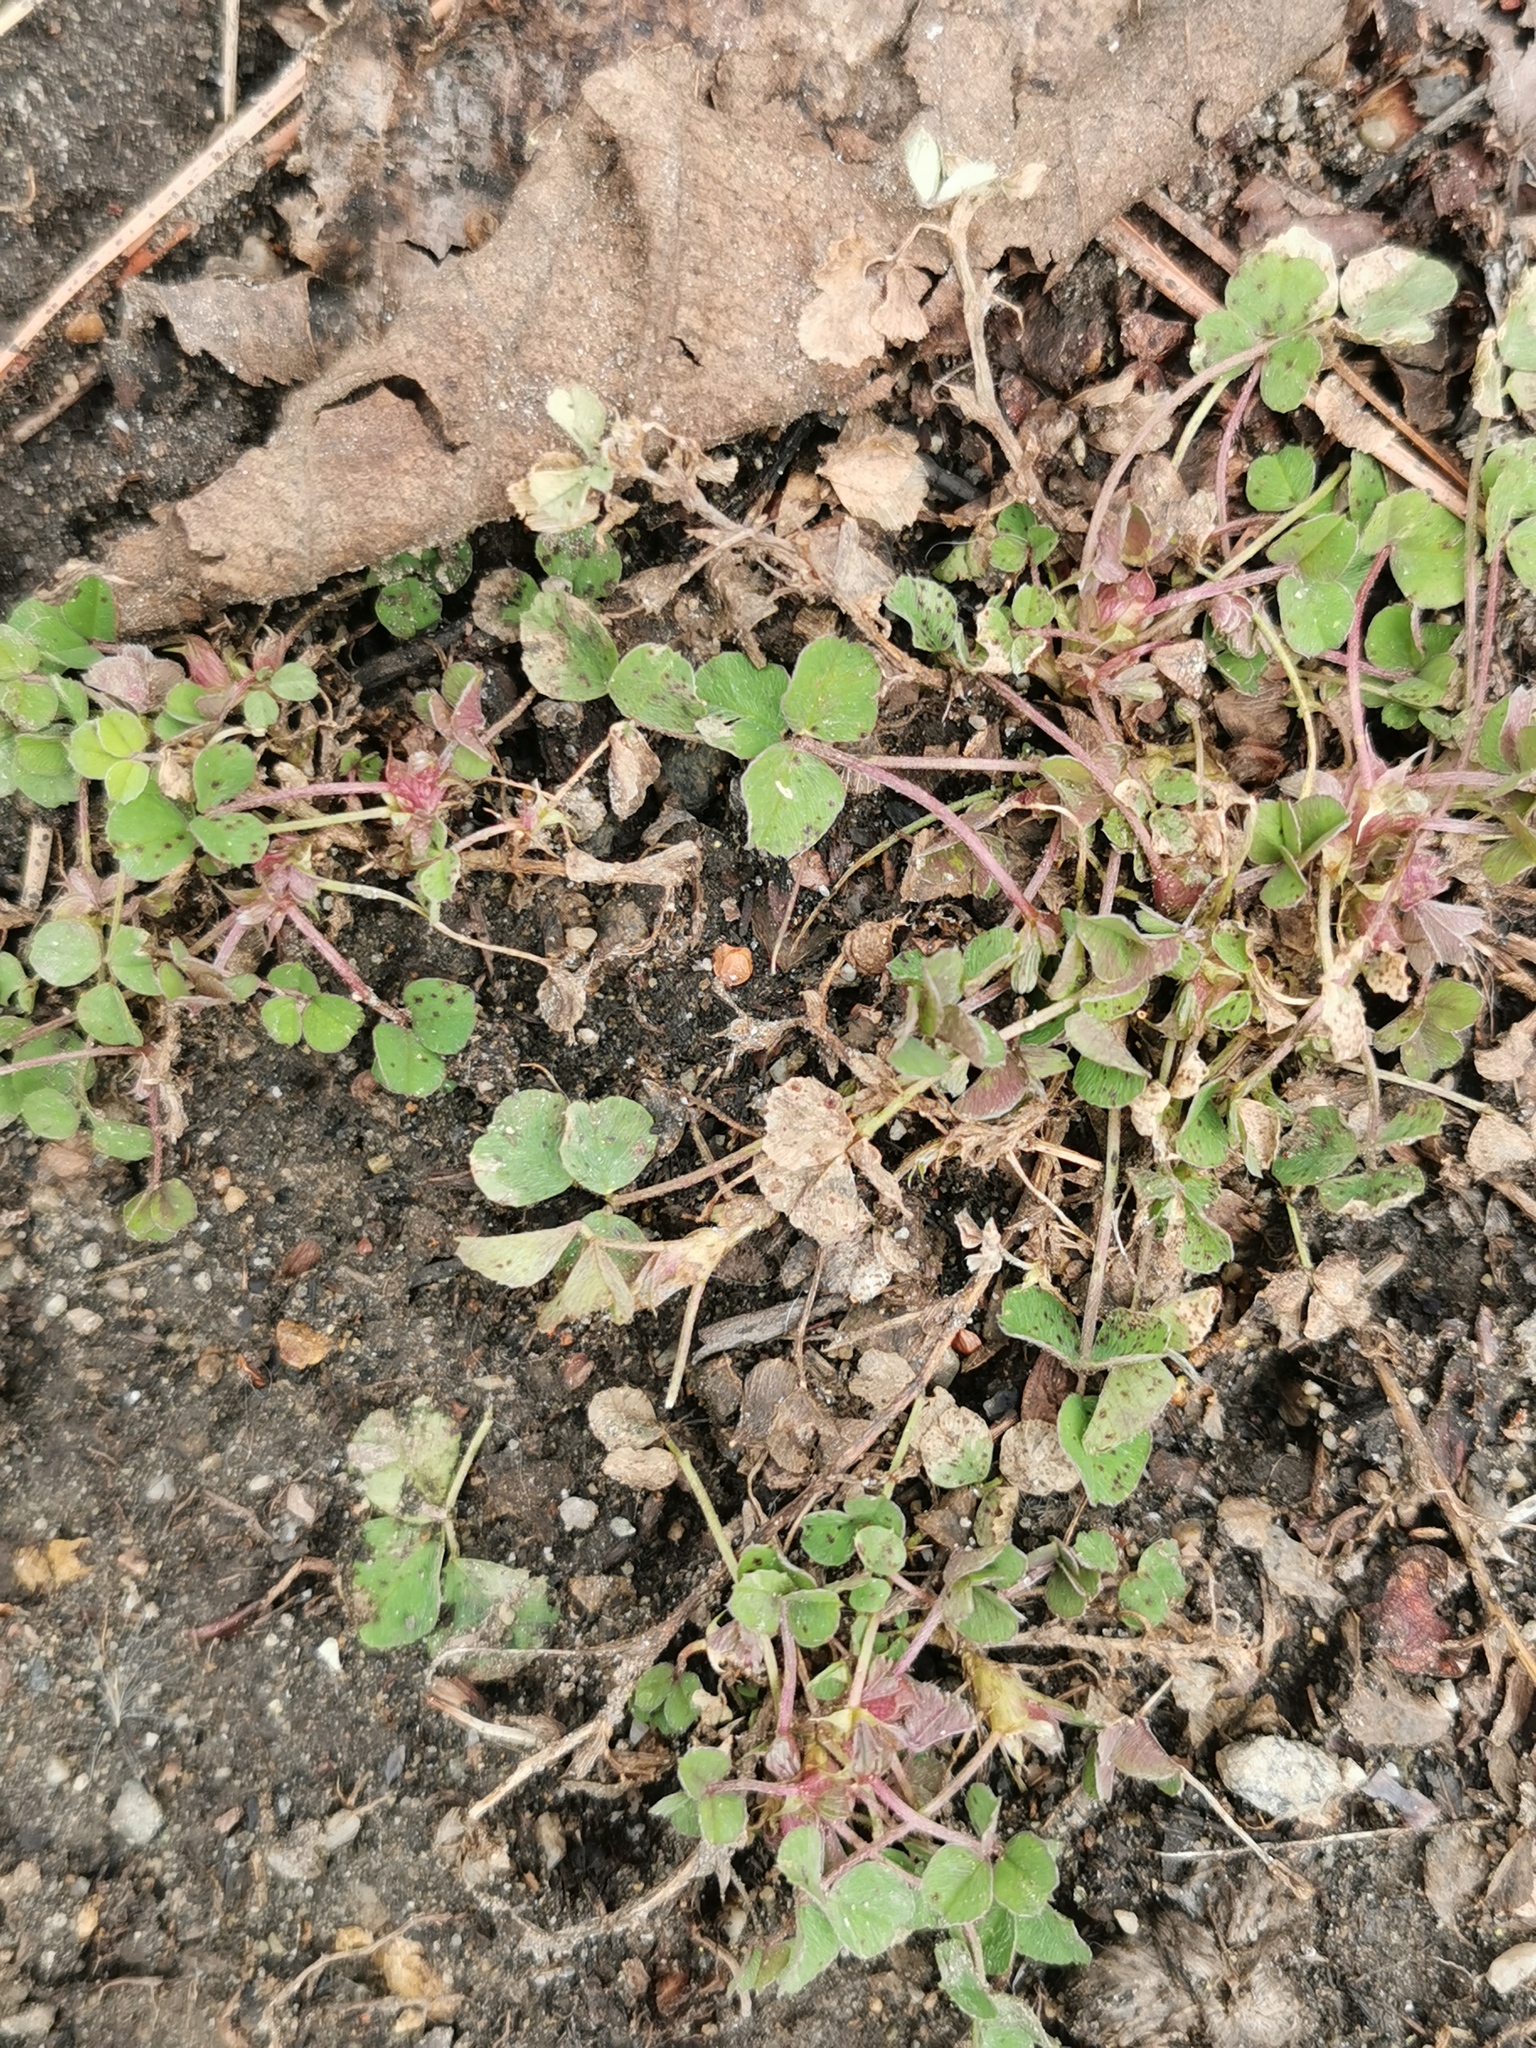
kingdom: Plantae
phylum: Tracheophyta
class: Magnoliopsida
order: Fabales
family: Fabaceae
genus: Medicago
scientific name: Medicago lupulina
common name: Black medick
